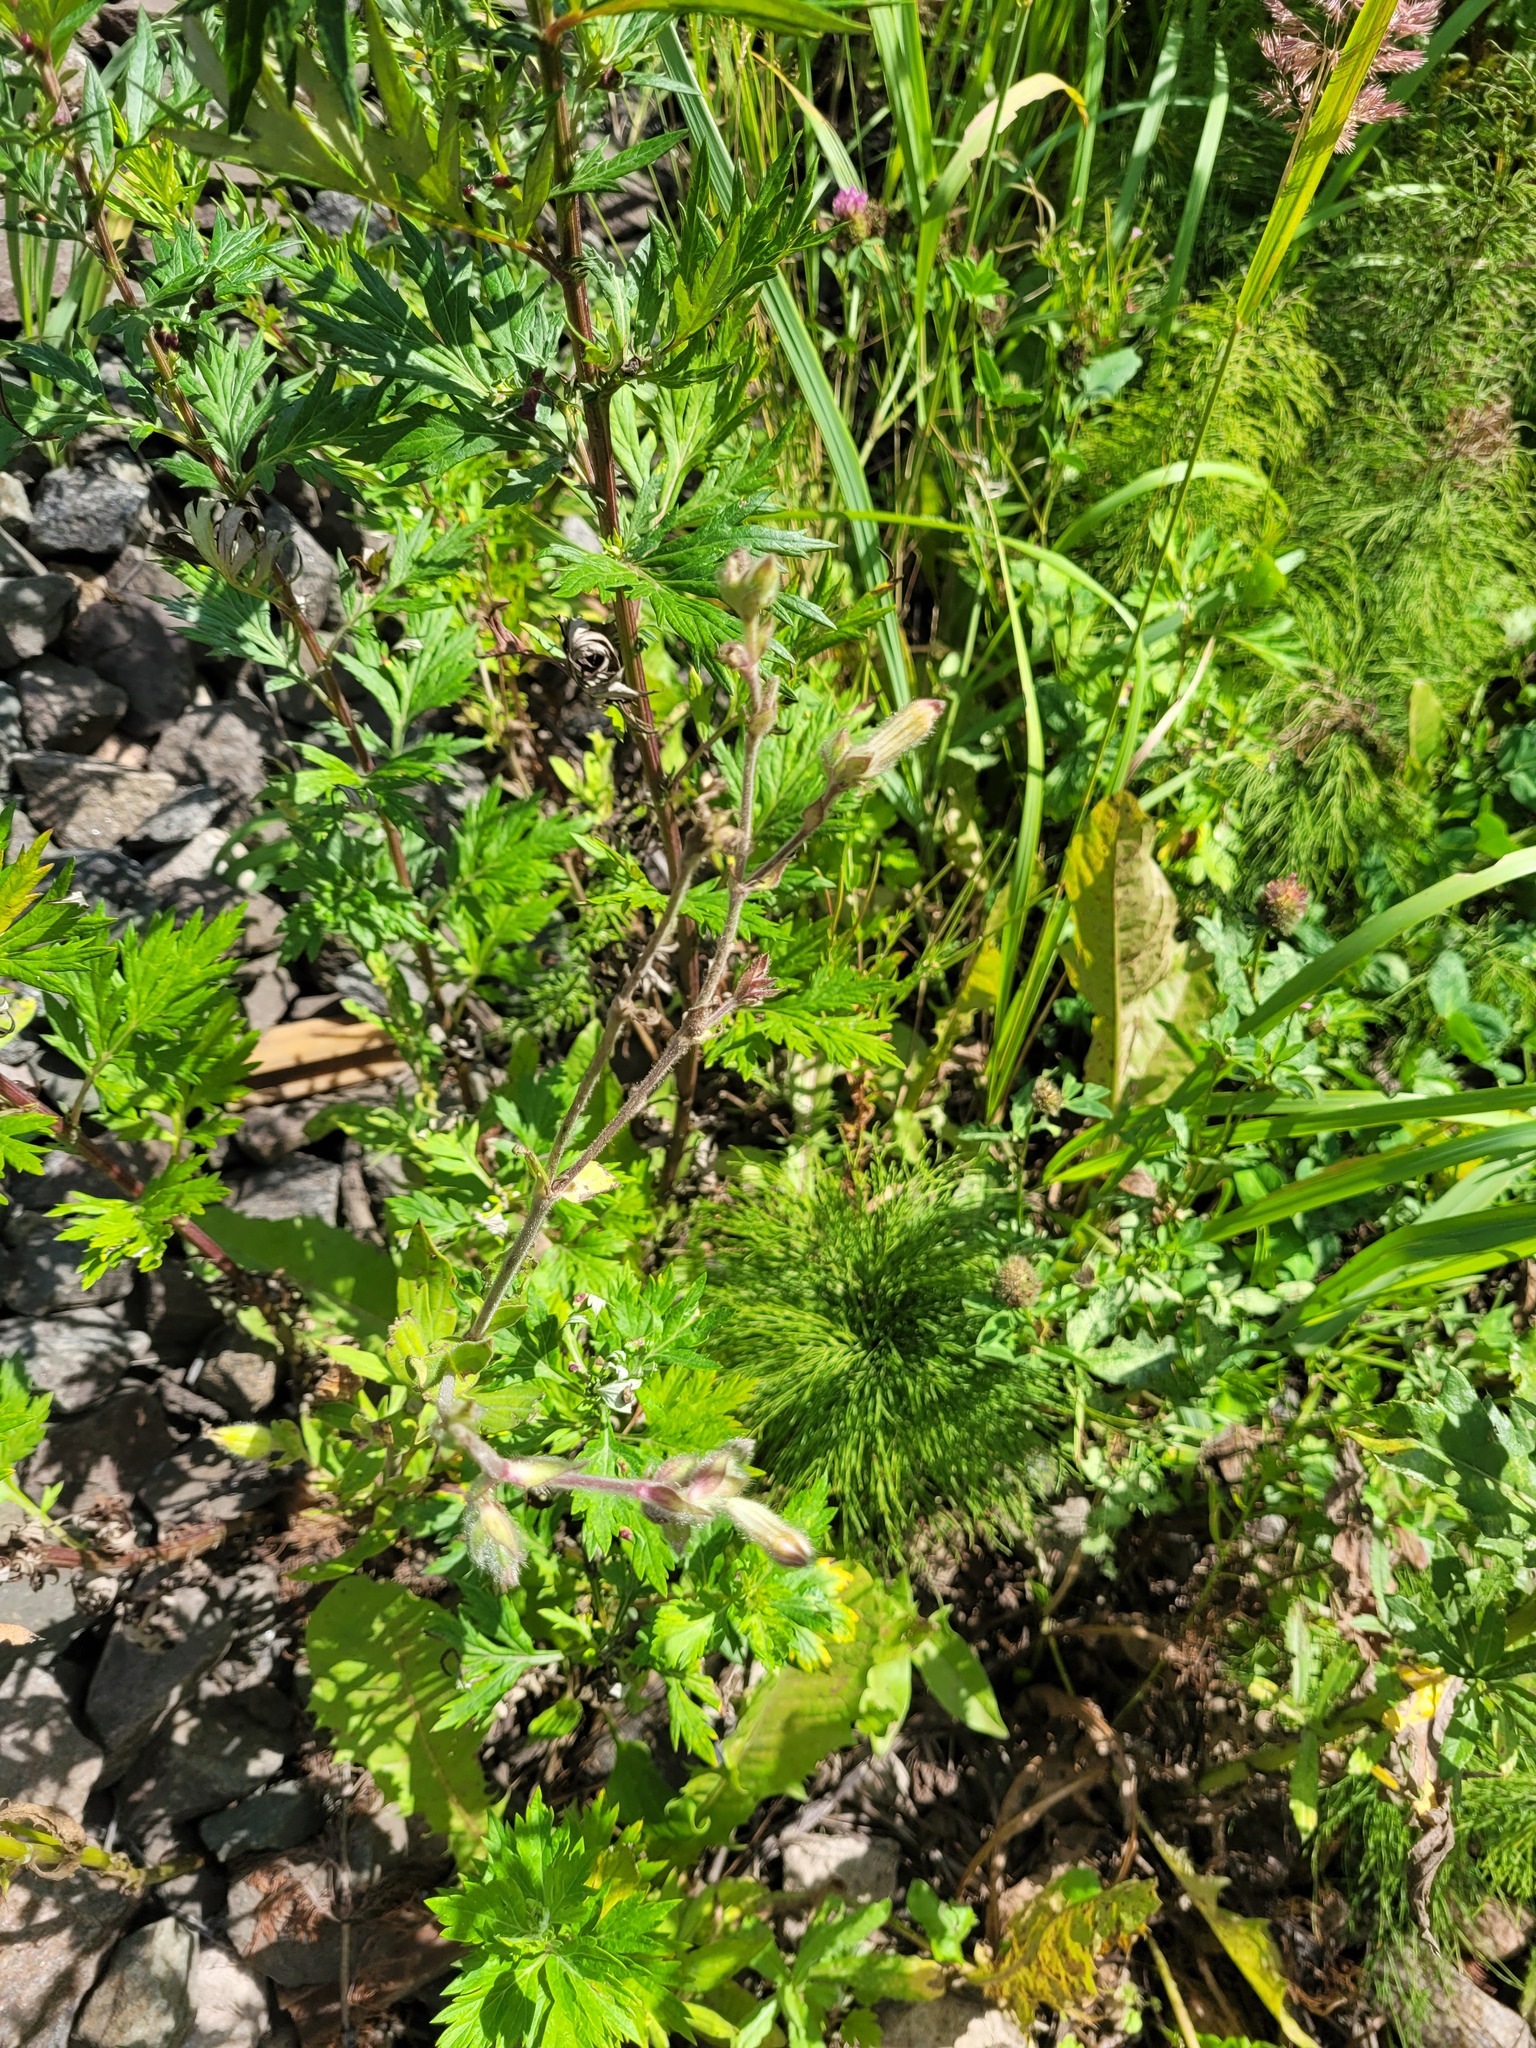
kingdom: Plantae
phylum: Tracheophyta
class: Magnoliopsida
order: Caryophyllales
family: Caryophyllaceae
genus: Silene
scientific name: Silene latifolia
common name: White campion
